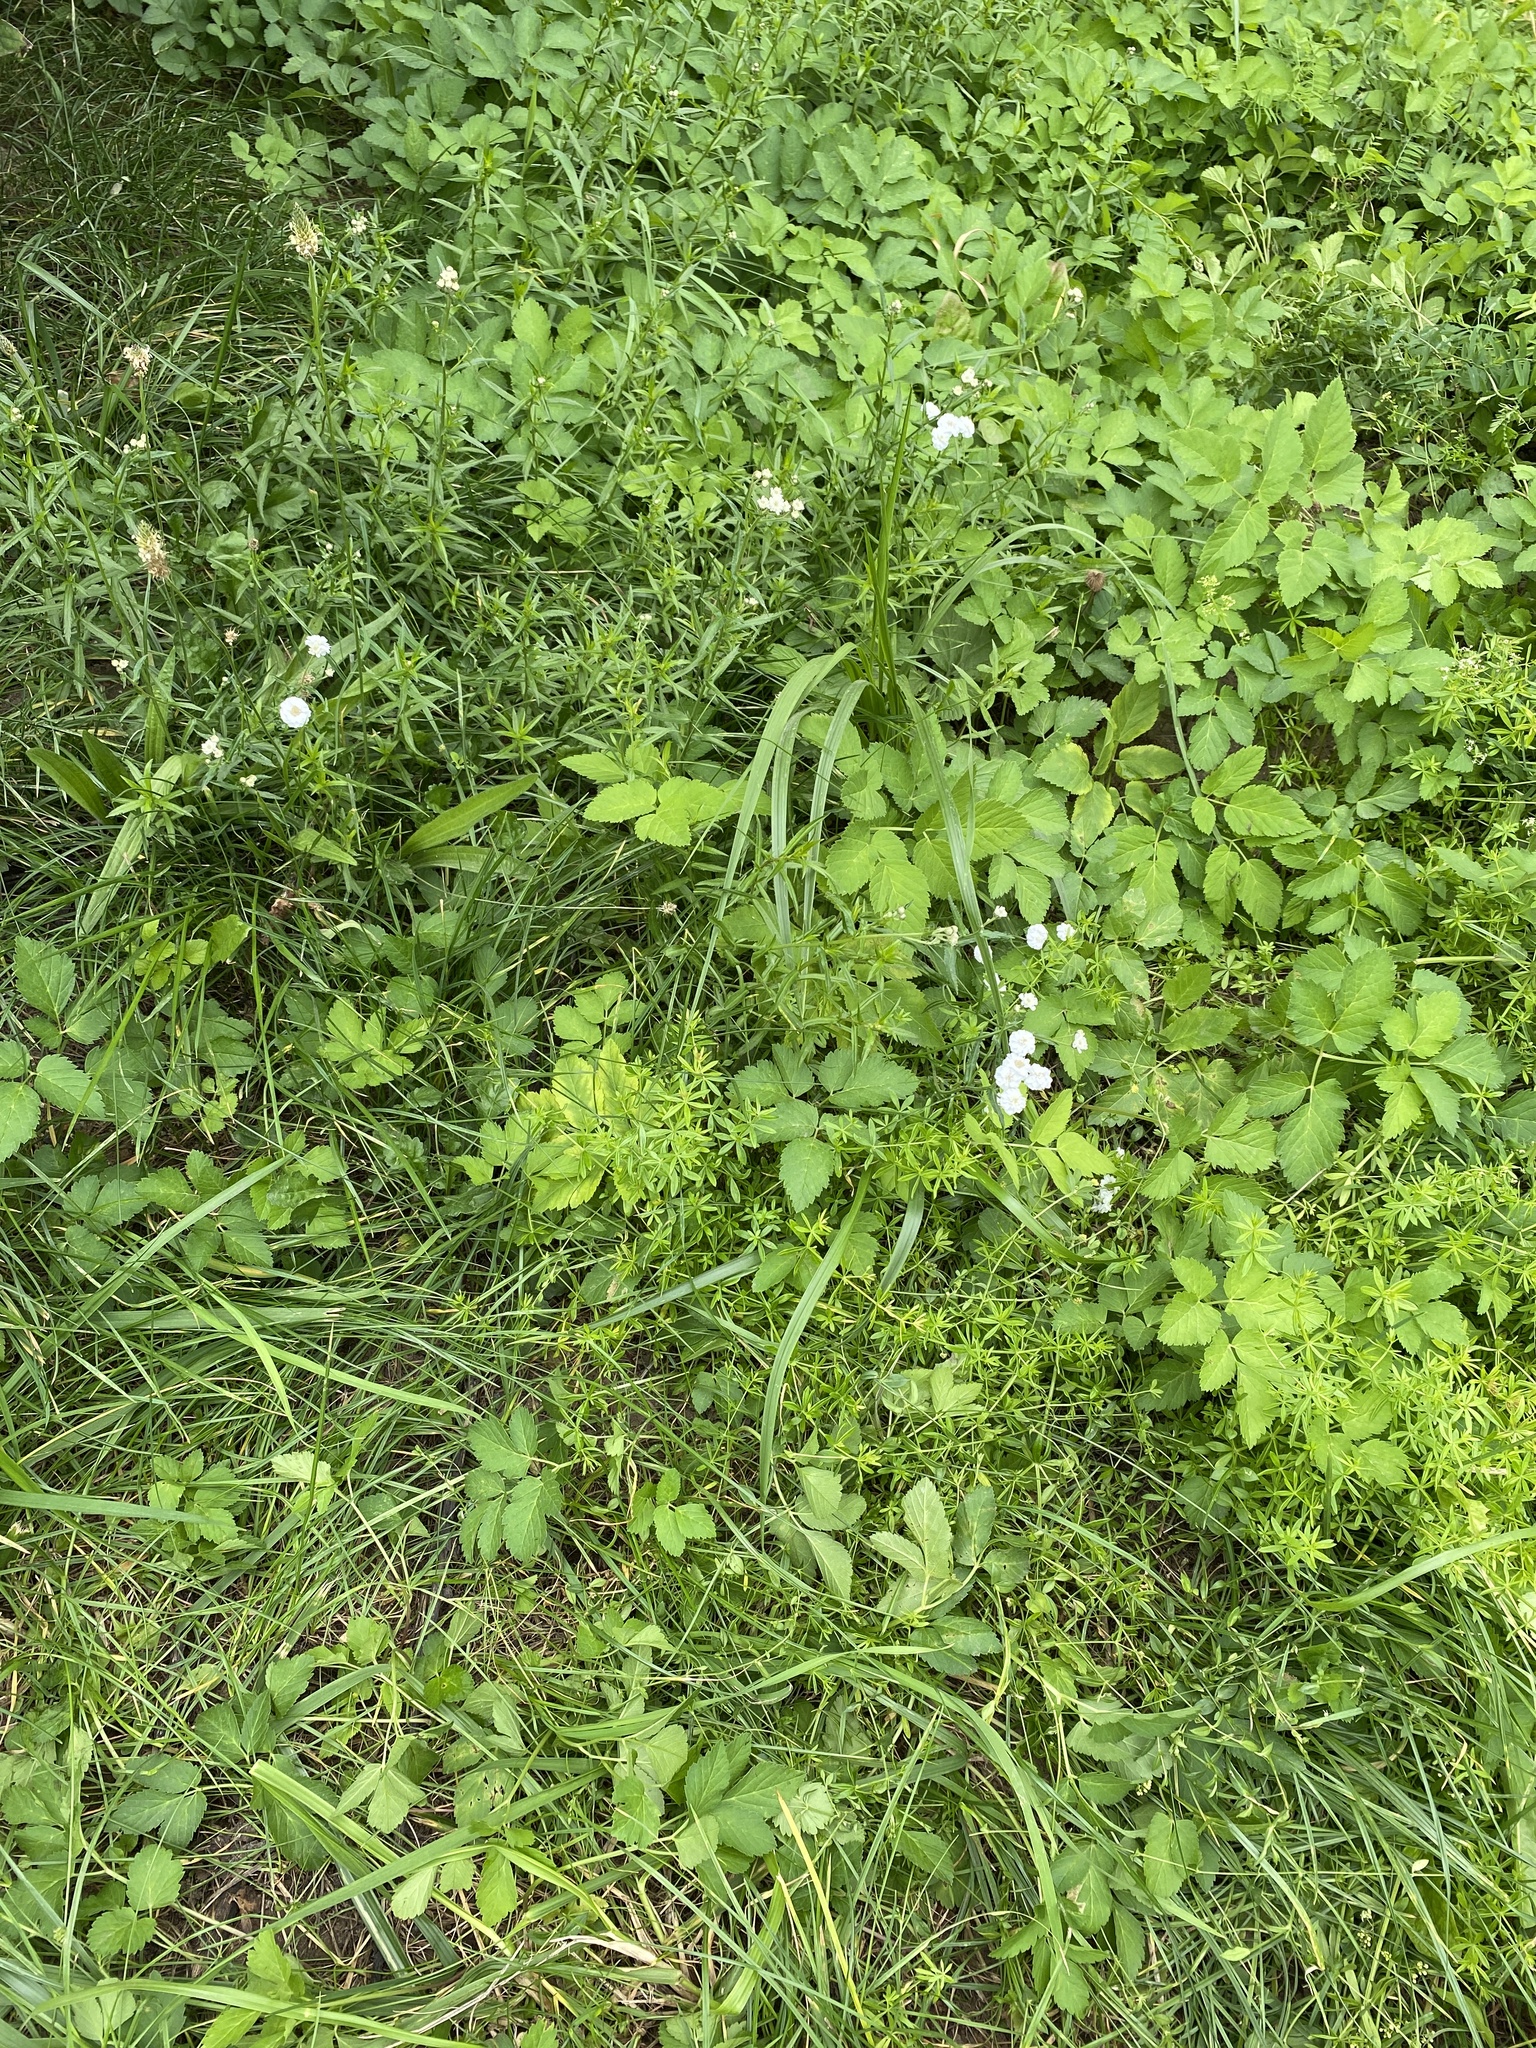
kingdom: Plantae
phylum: Tracheophyta
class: Magnoliopsida
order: Asterales
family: Asteraceae
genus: Achillea
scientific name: Achillea ptarmica
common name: Sneezeweed
